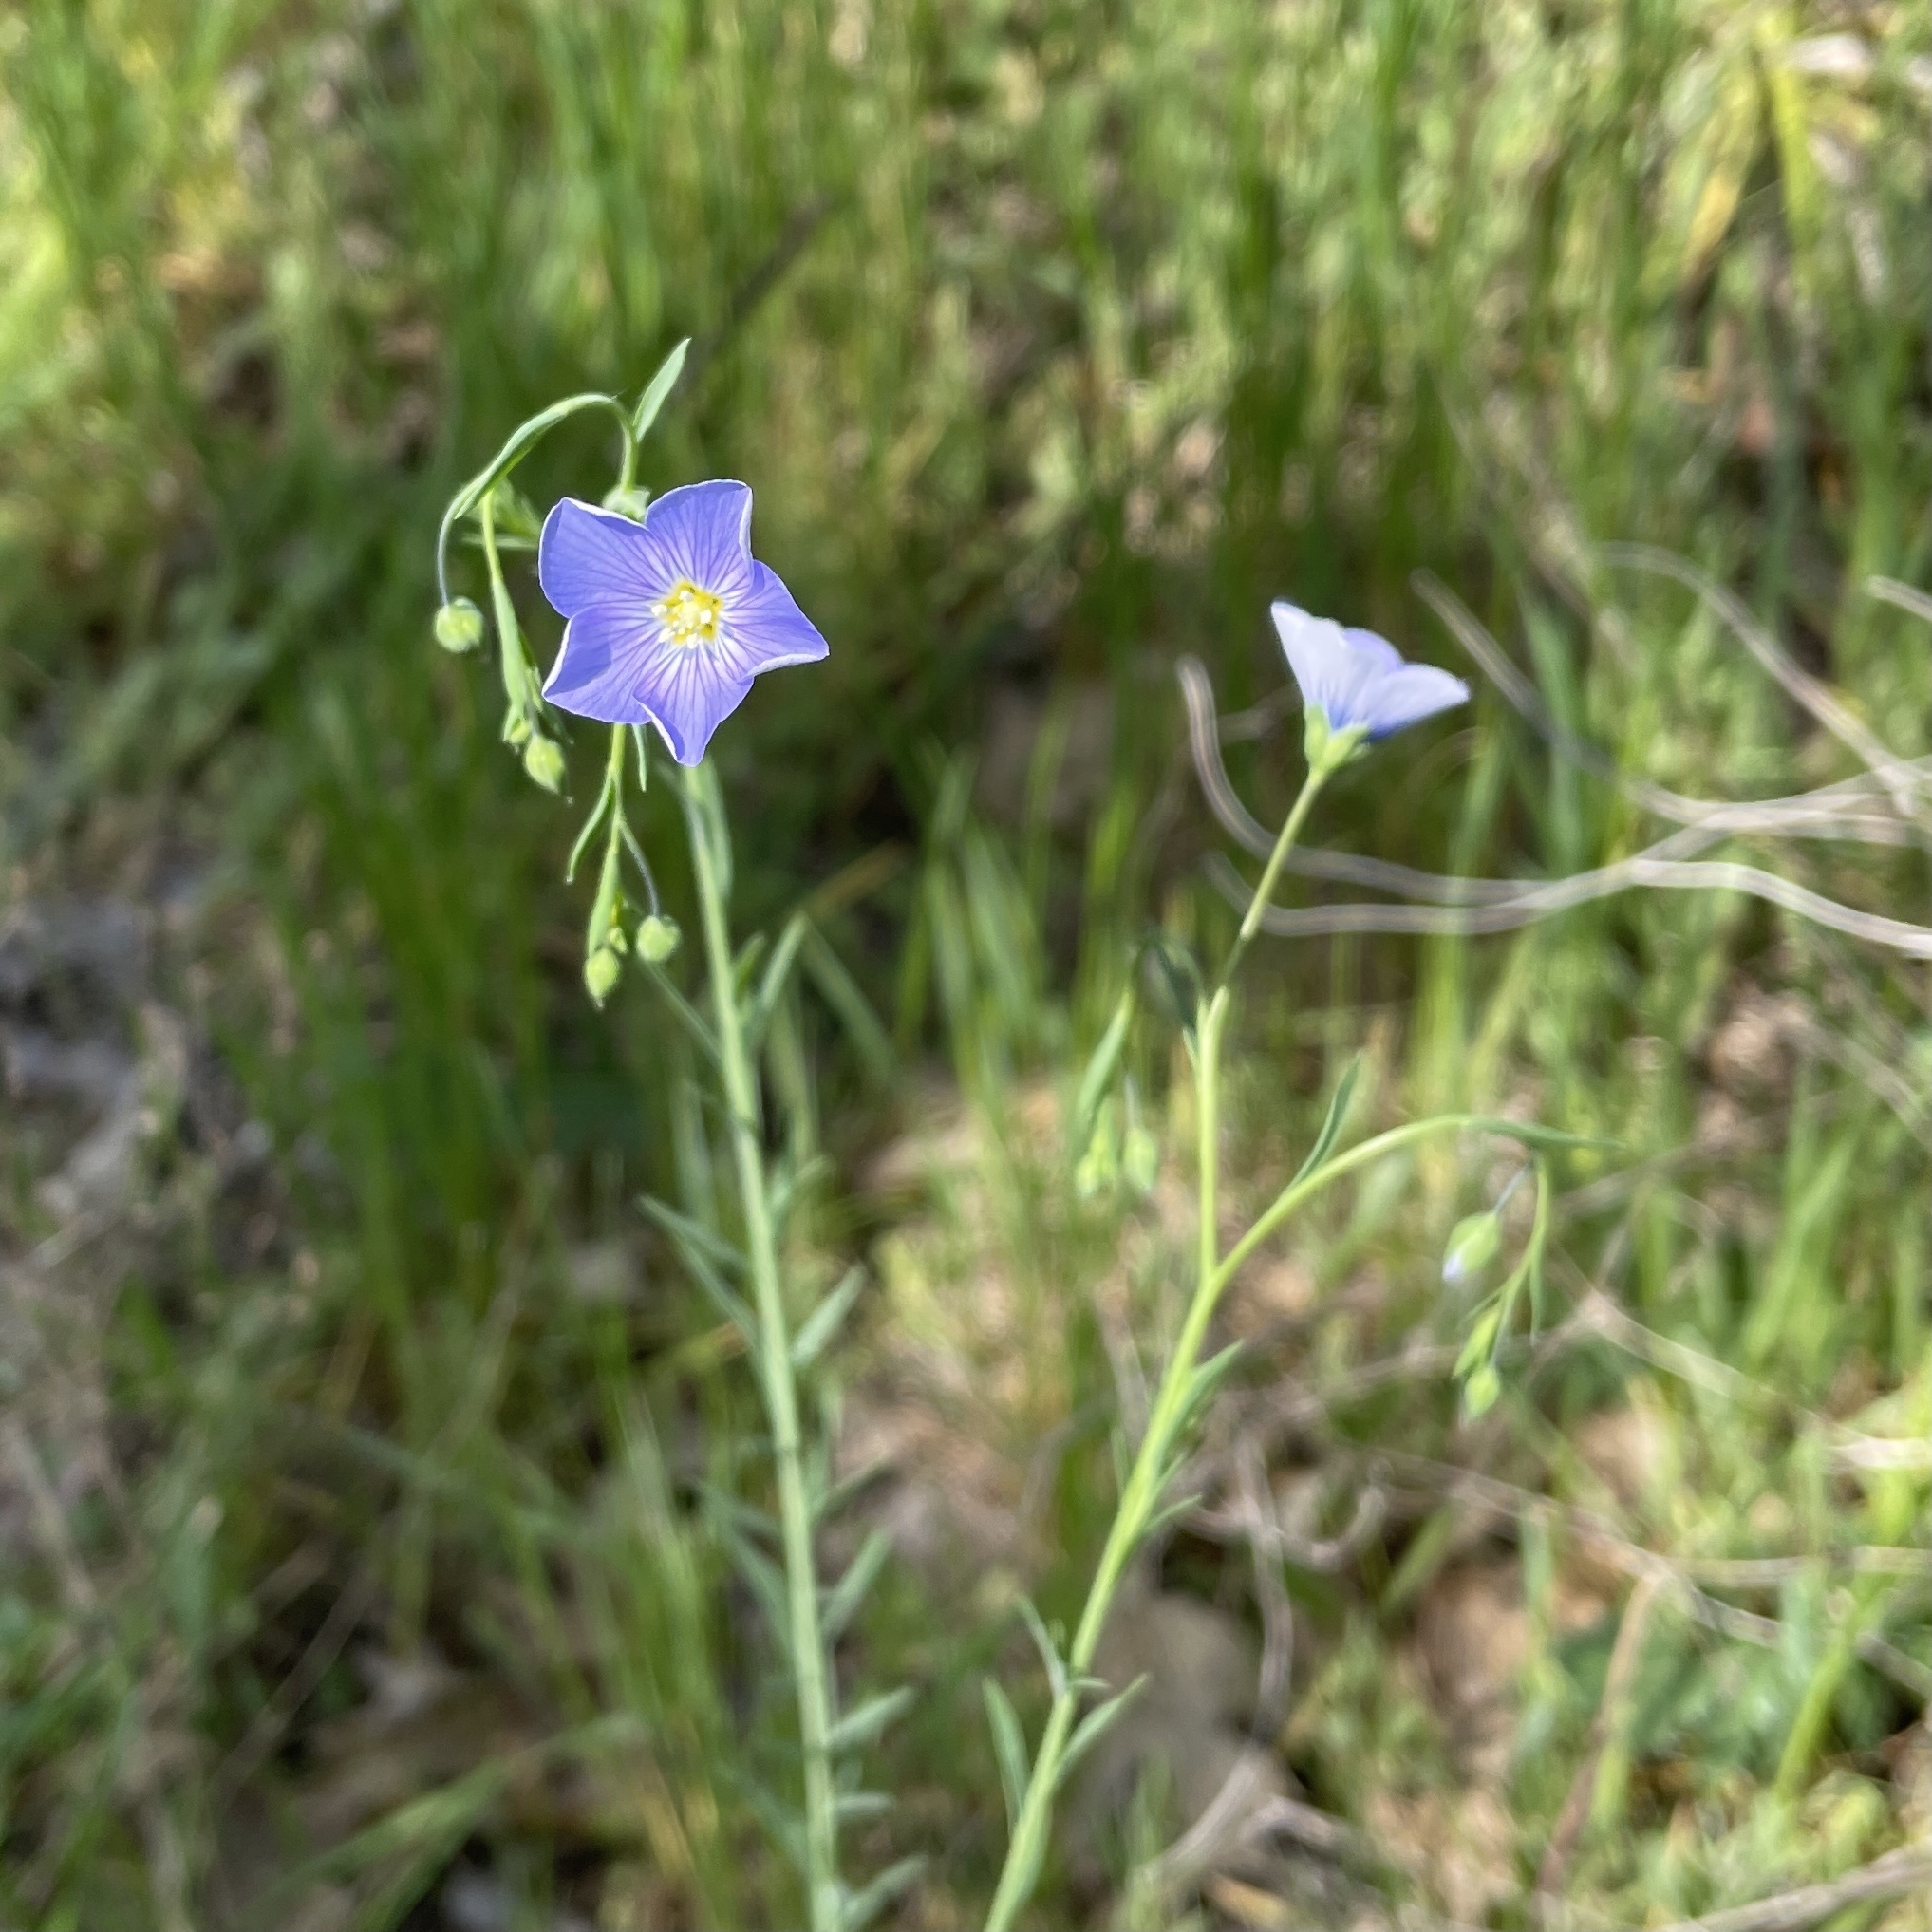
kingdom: Plantae
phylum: Tracheophyta
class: Magnoliopsida
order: Malpighiales
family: Linaceae
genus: Linum
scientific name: Linum pratense
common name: Norton's flax
